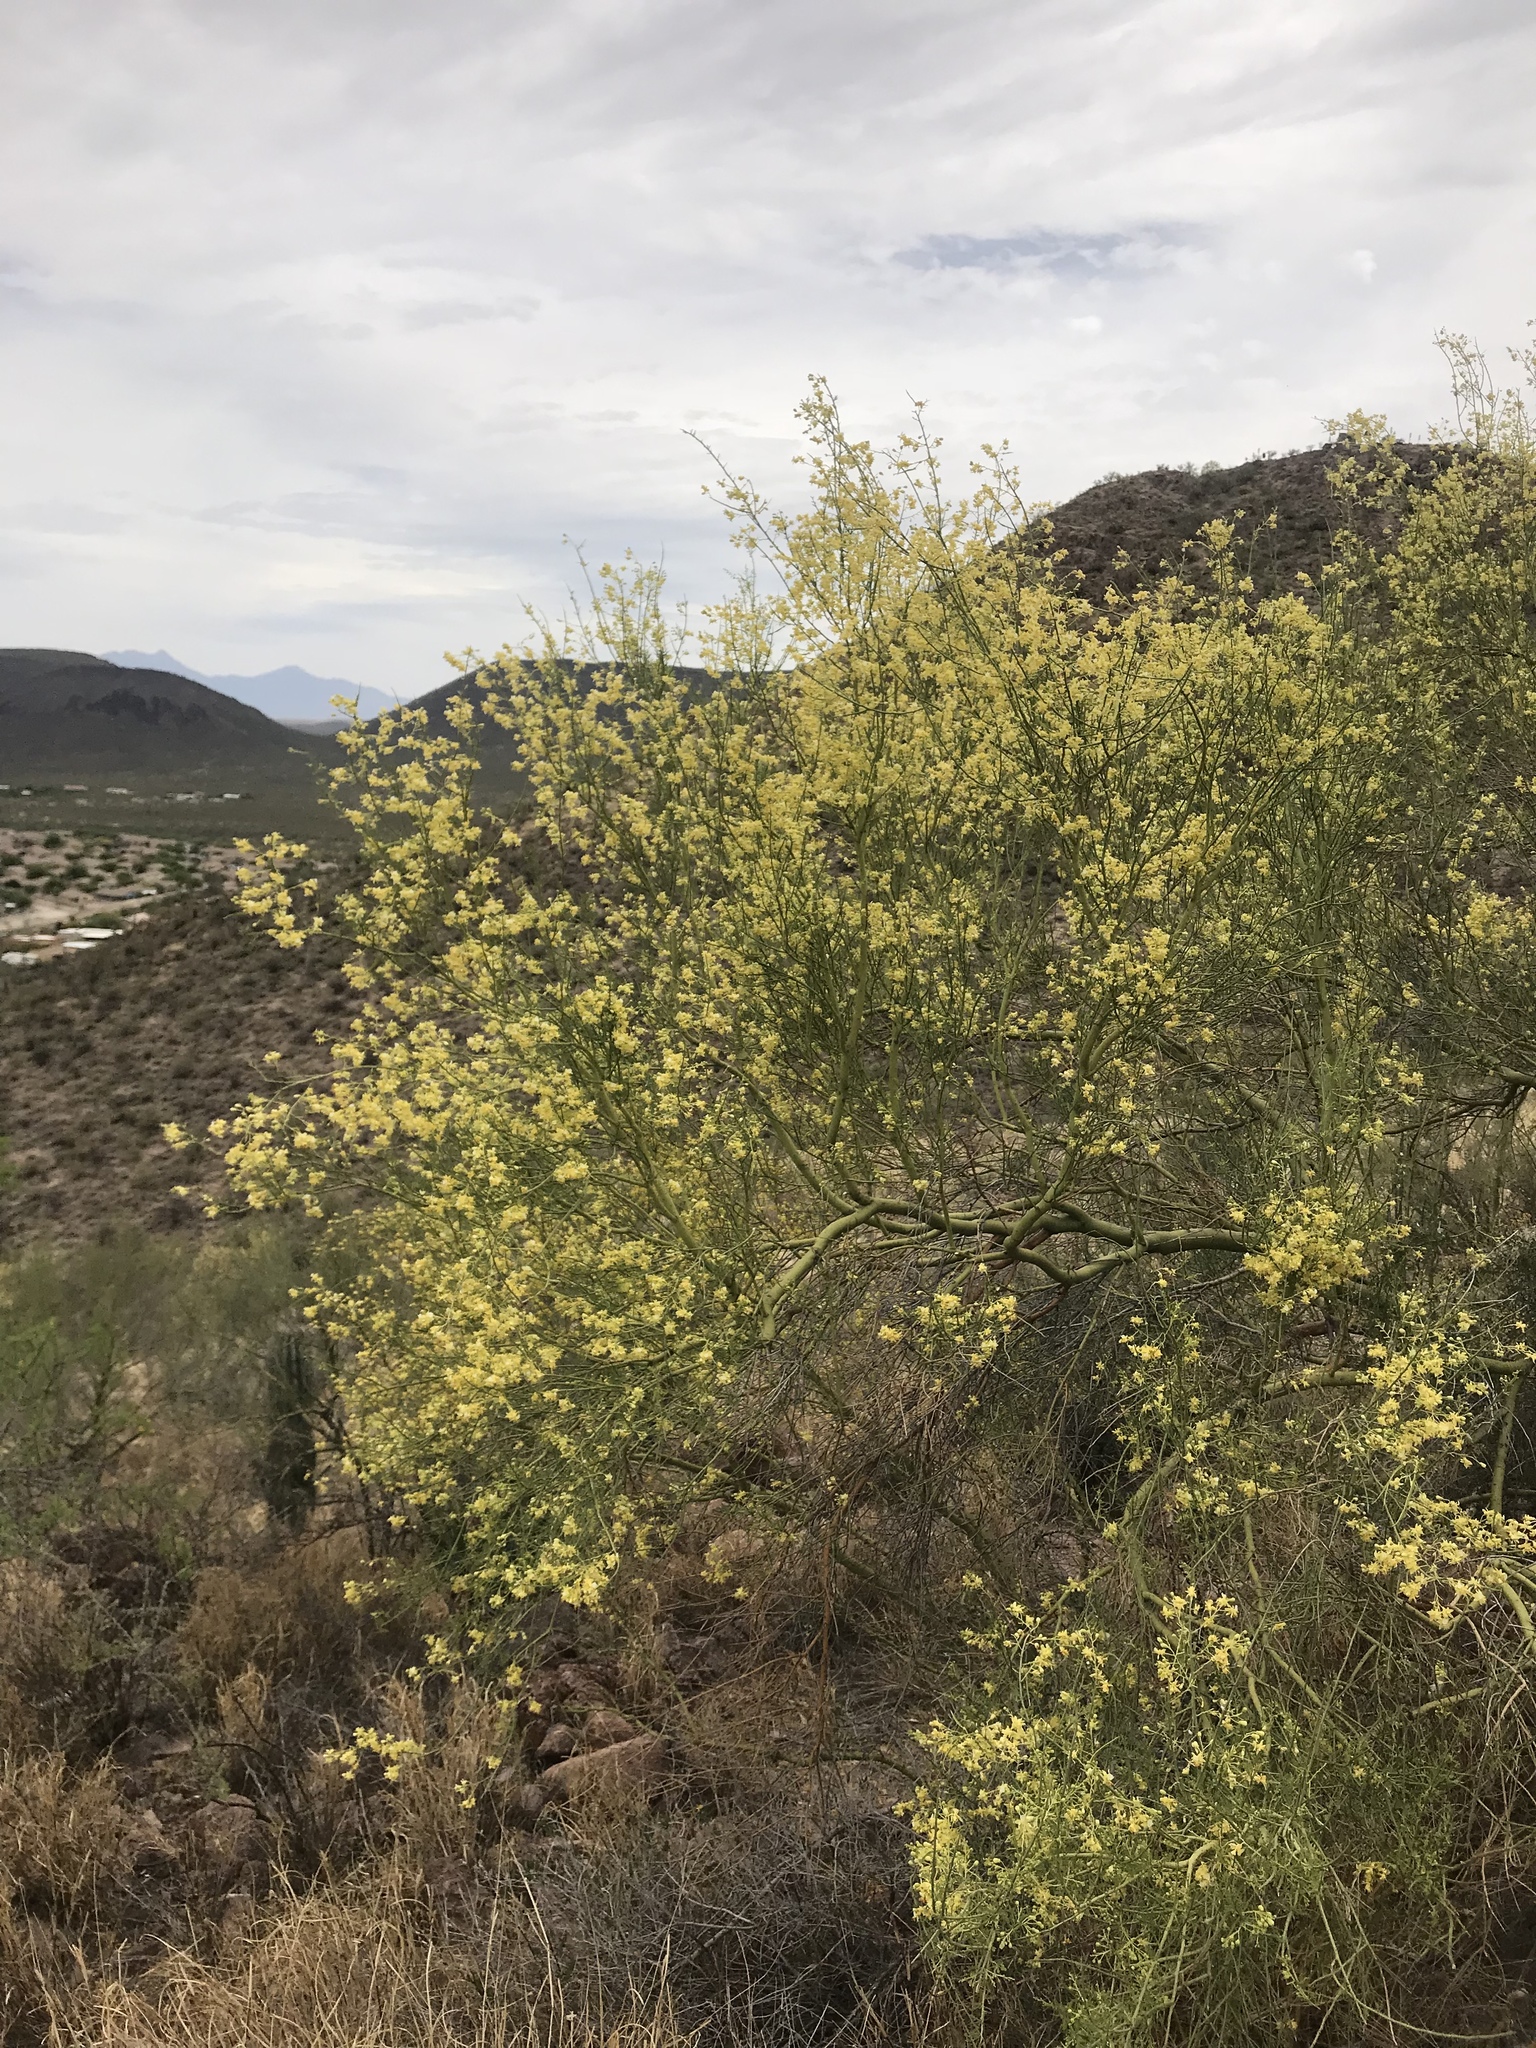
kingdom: Plantae
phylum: Tracheophyta
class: Magnoliopsida
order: Fabales
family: Fabaceae
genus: Parkinsonia
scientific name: Parkinsonia microphylla
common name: Yellow paloverde
